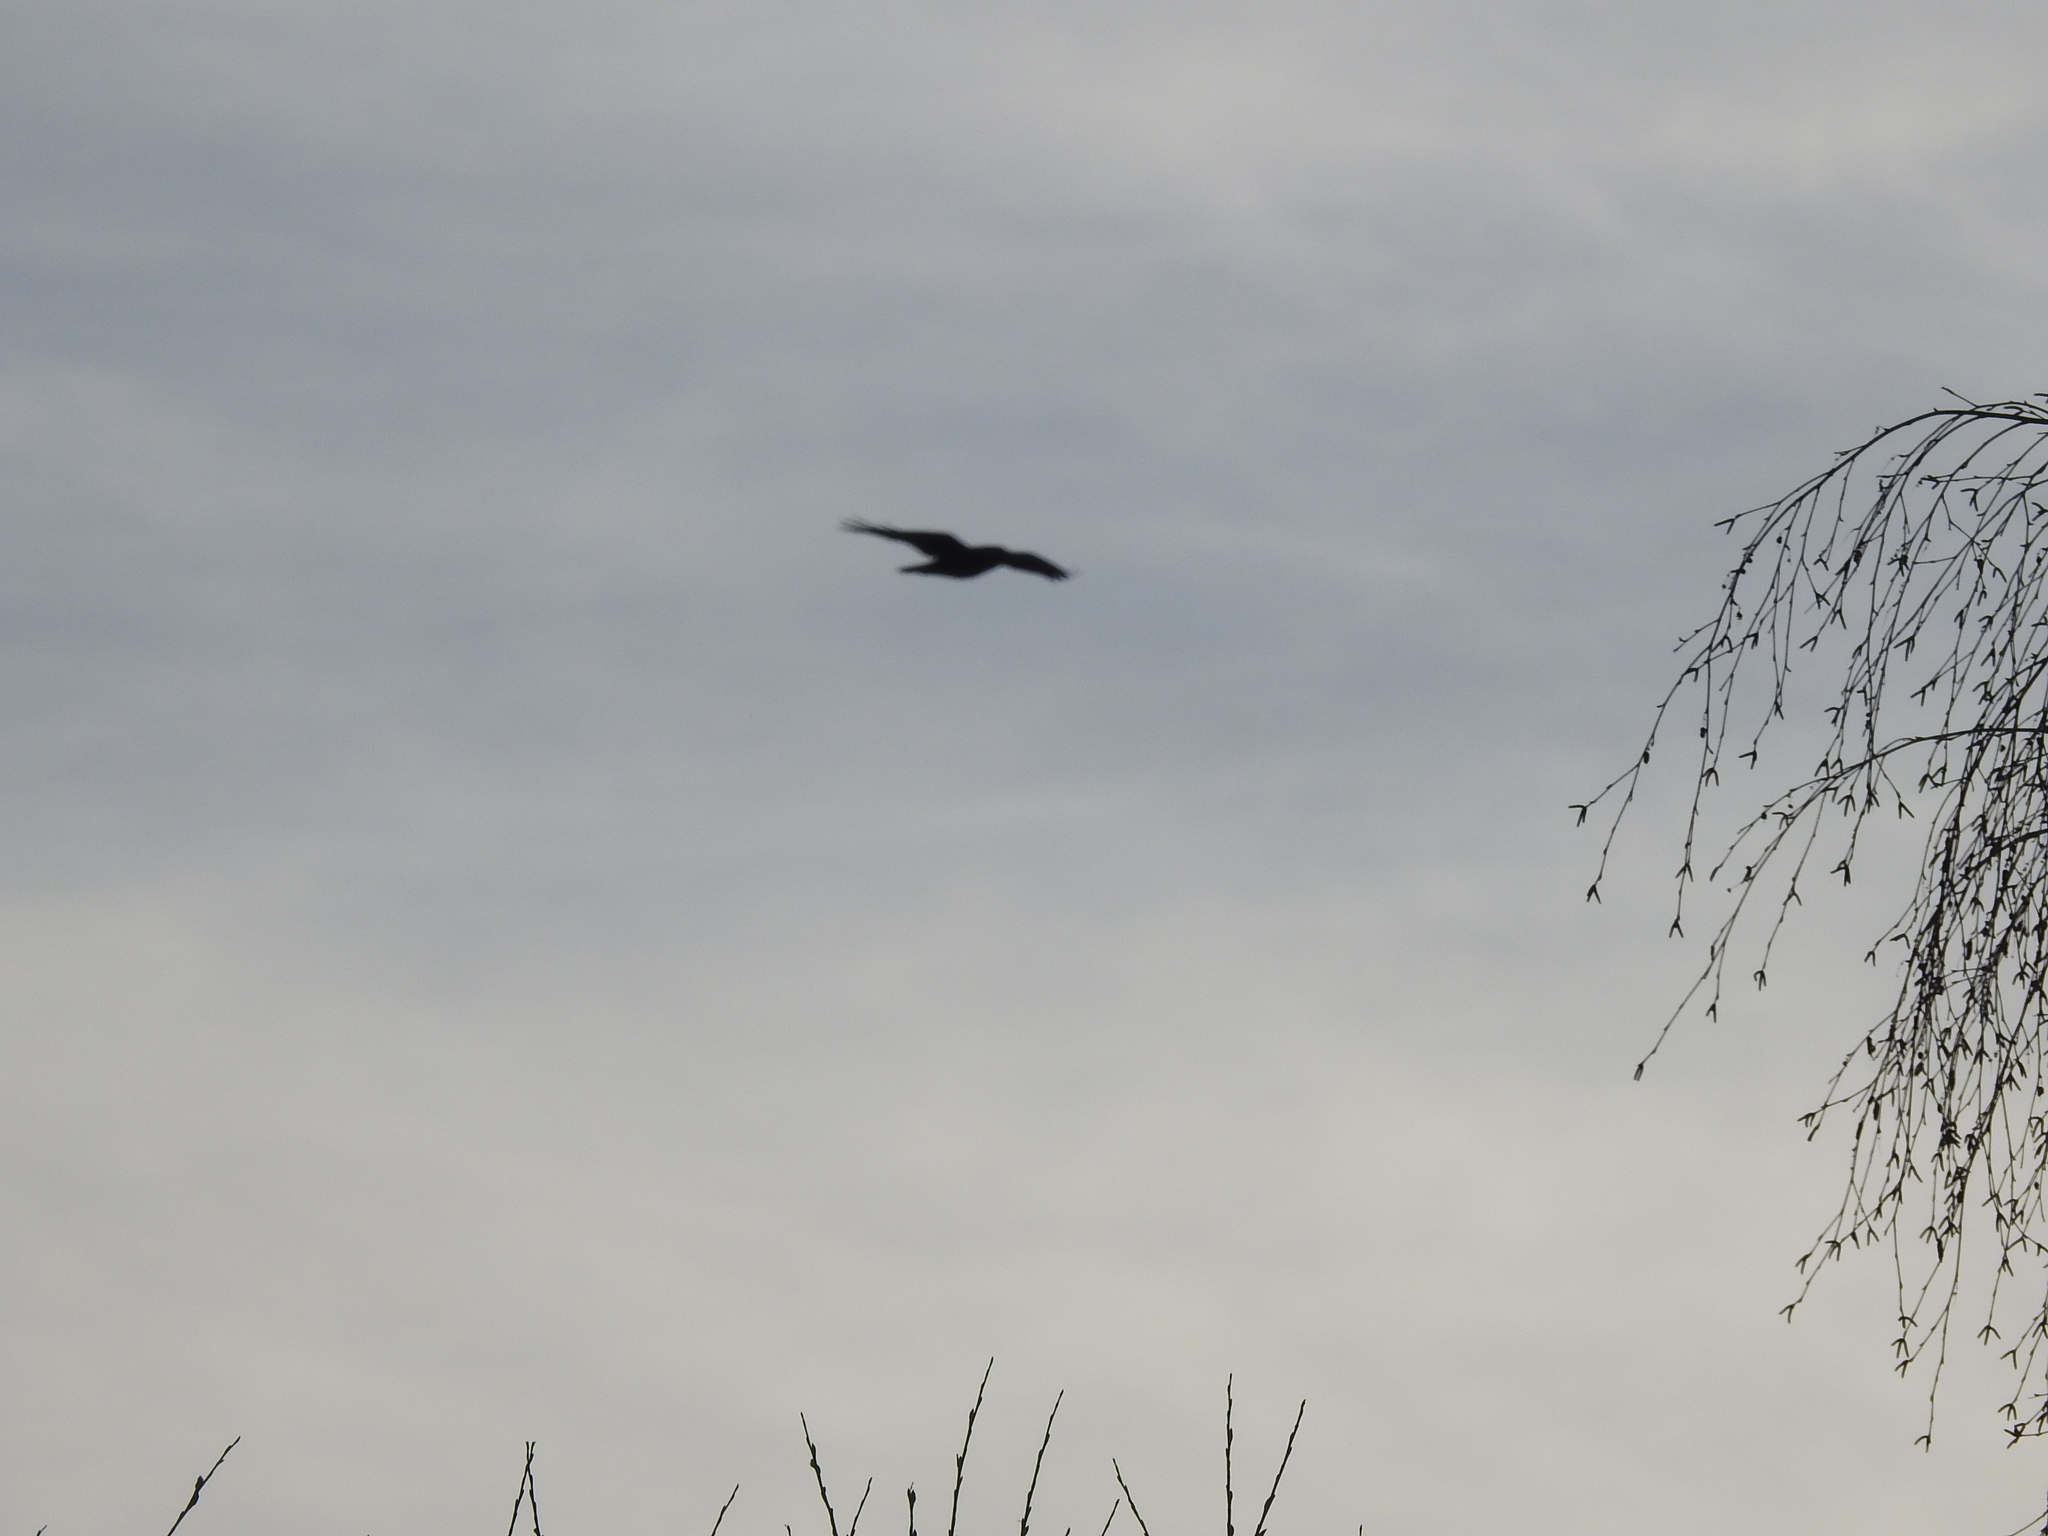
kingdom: Animalia
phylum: Chordata
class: Aves
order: Passeriformes
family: Corvidae
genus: Corvus
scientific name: Corvus corax
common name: Common raven
